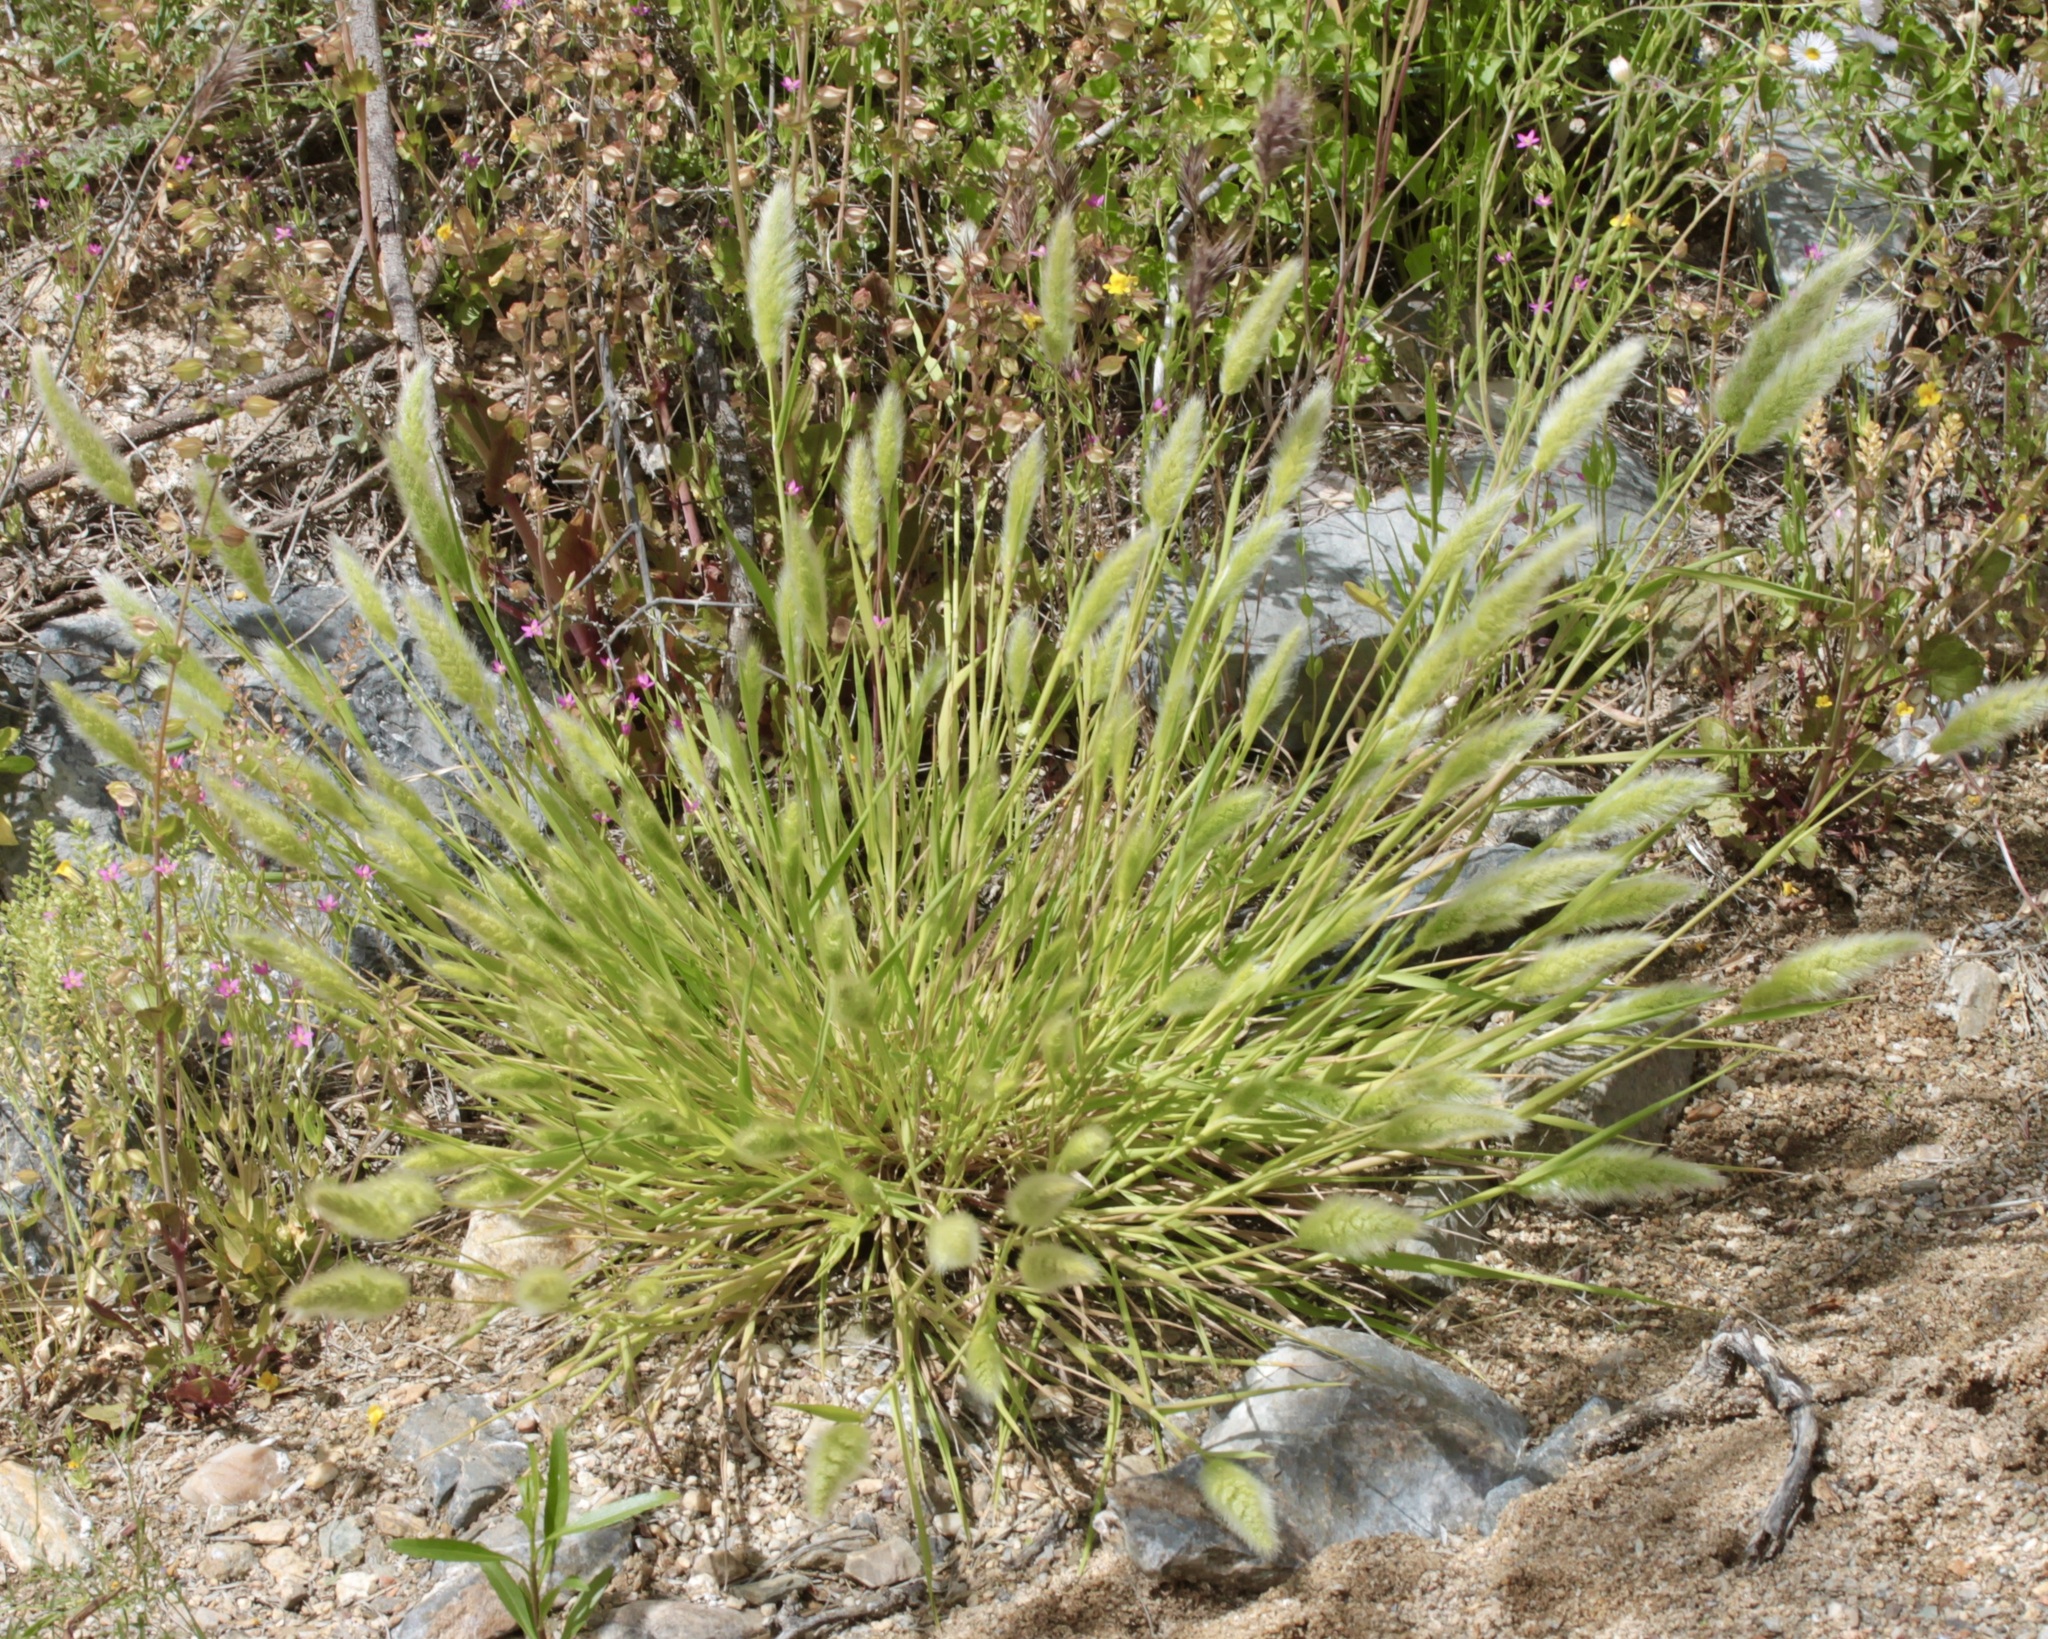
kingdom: Plantae
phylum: Tracheophyta
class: Liliopsida
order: Poales
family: Poaceae
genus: Polypogon
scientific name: Polypogon monspeliensis
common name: Annual rabbitsfoot grass
